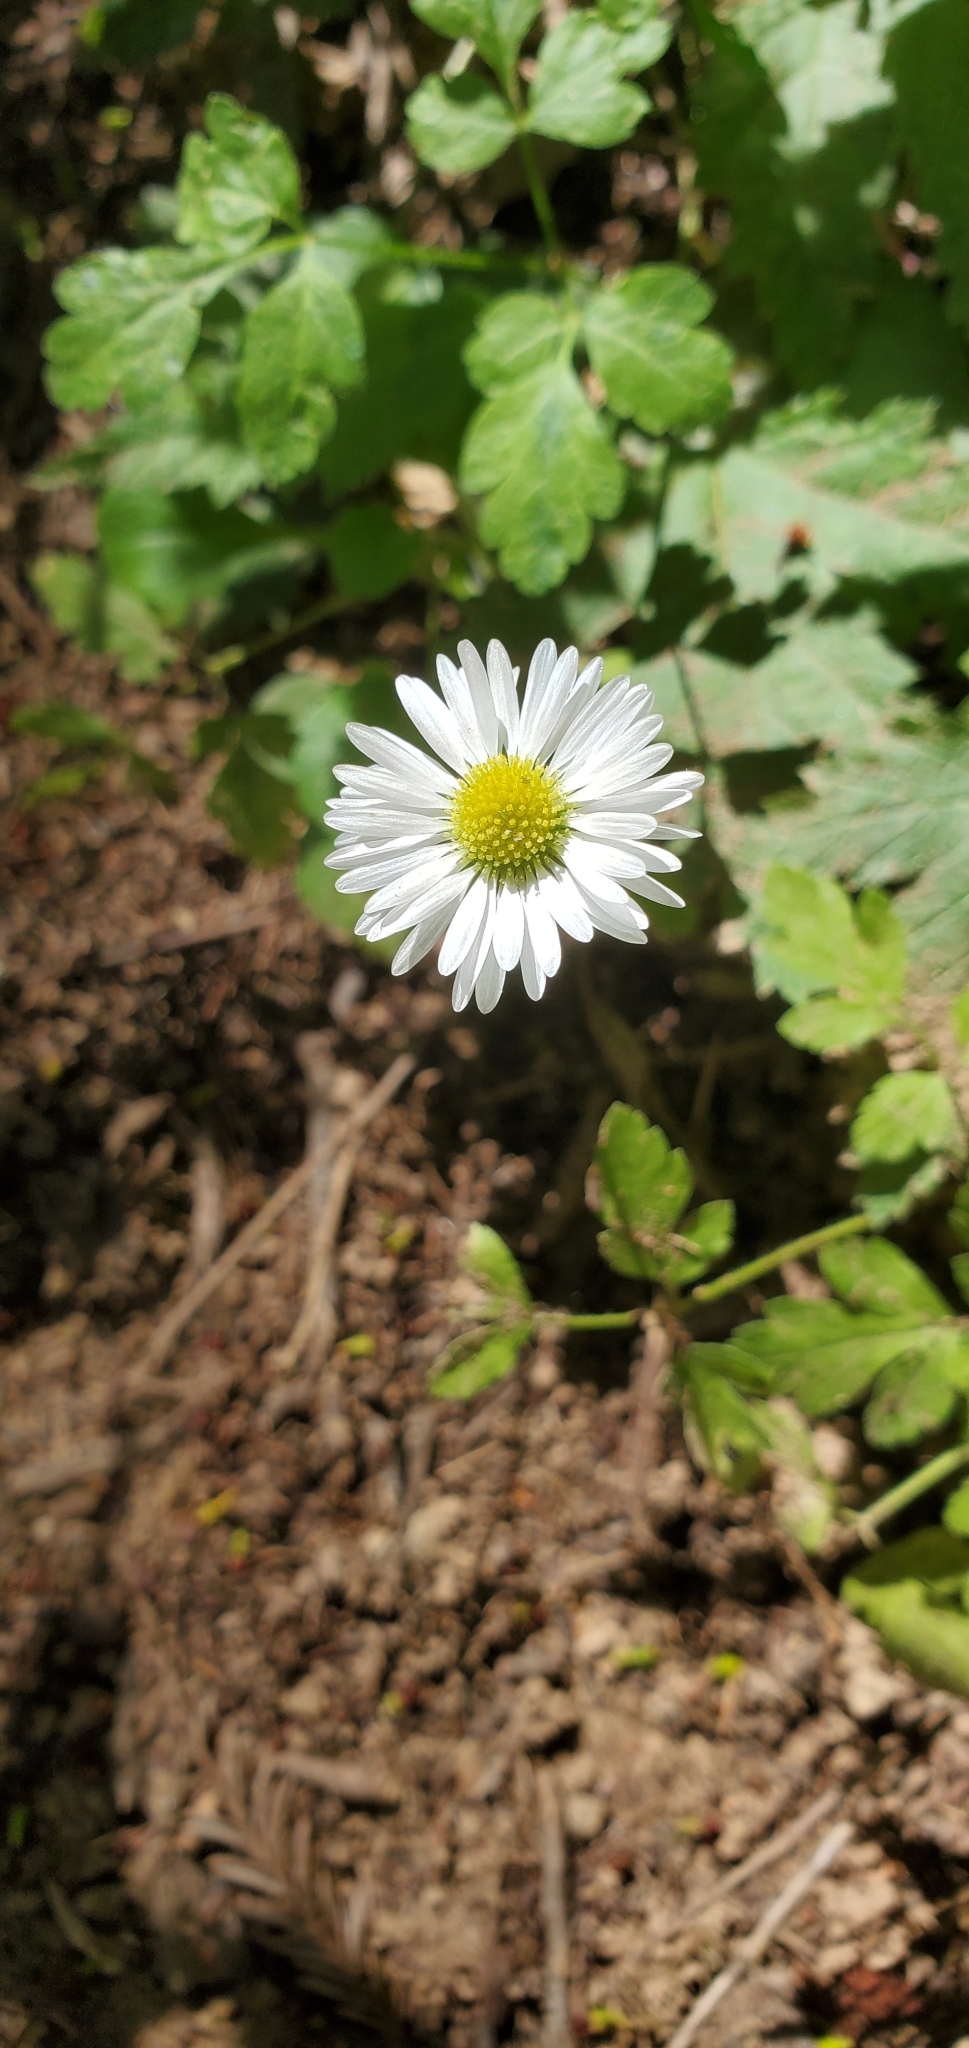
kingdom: Plantae
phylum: Tracheophyta
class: Magnoliopsida
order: Asterales
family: Asteraceae
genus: Bellis
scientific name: Bellis perennis
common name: Lawndaisy
